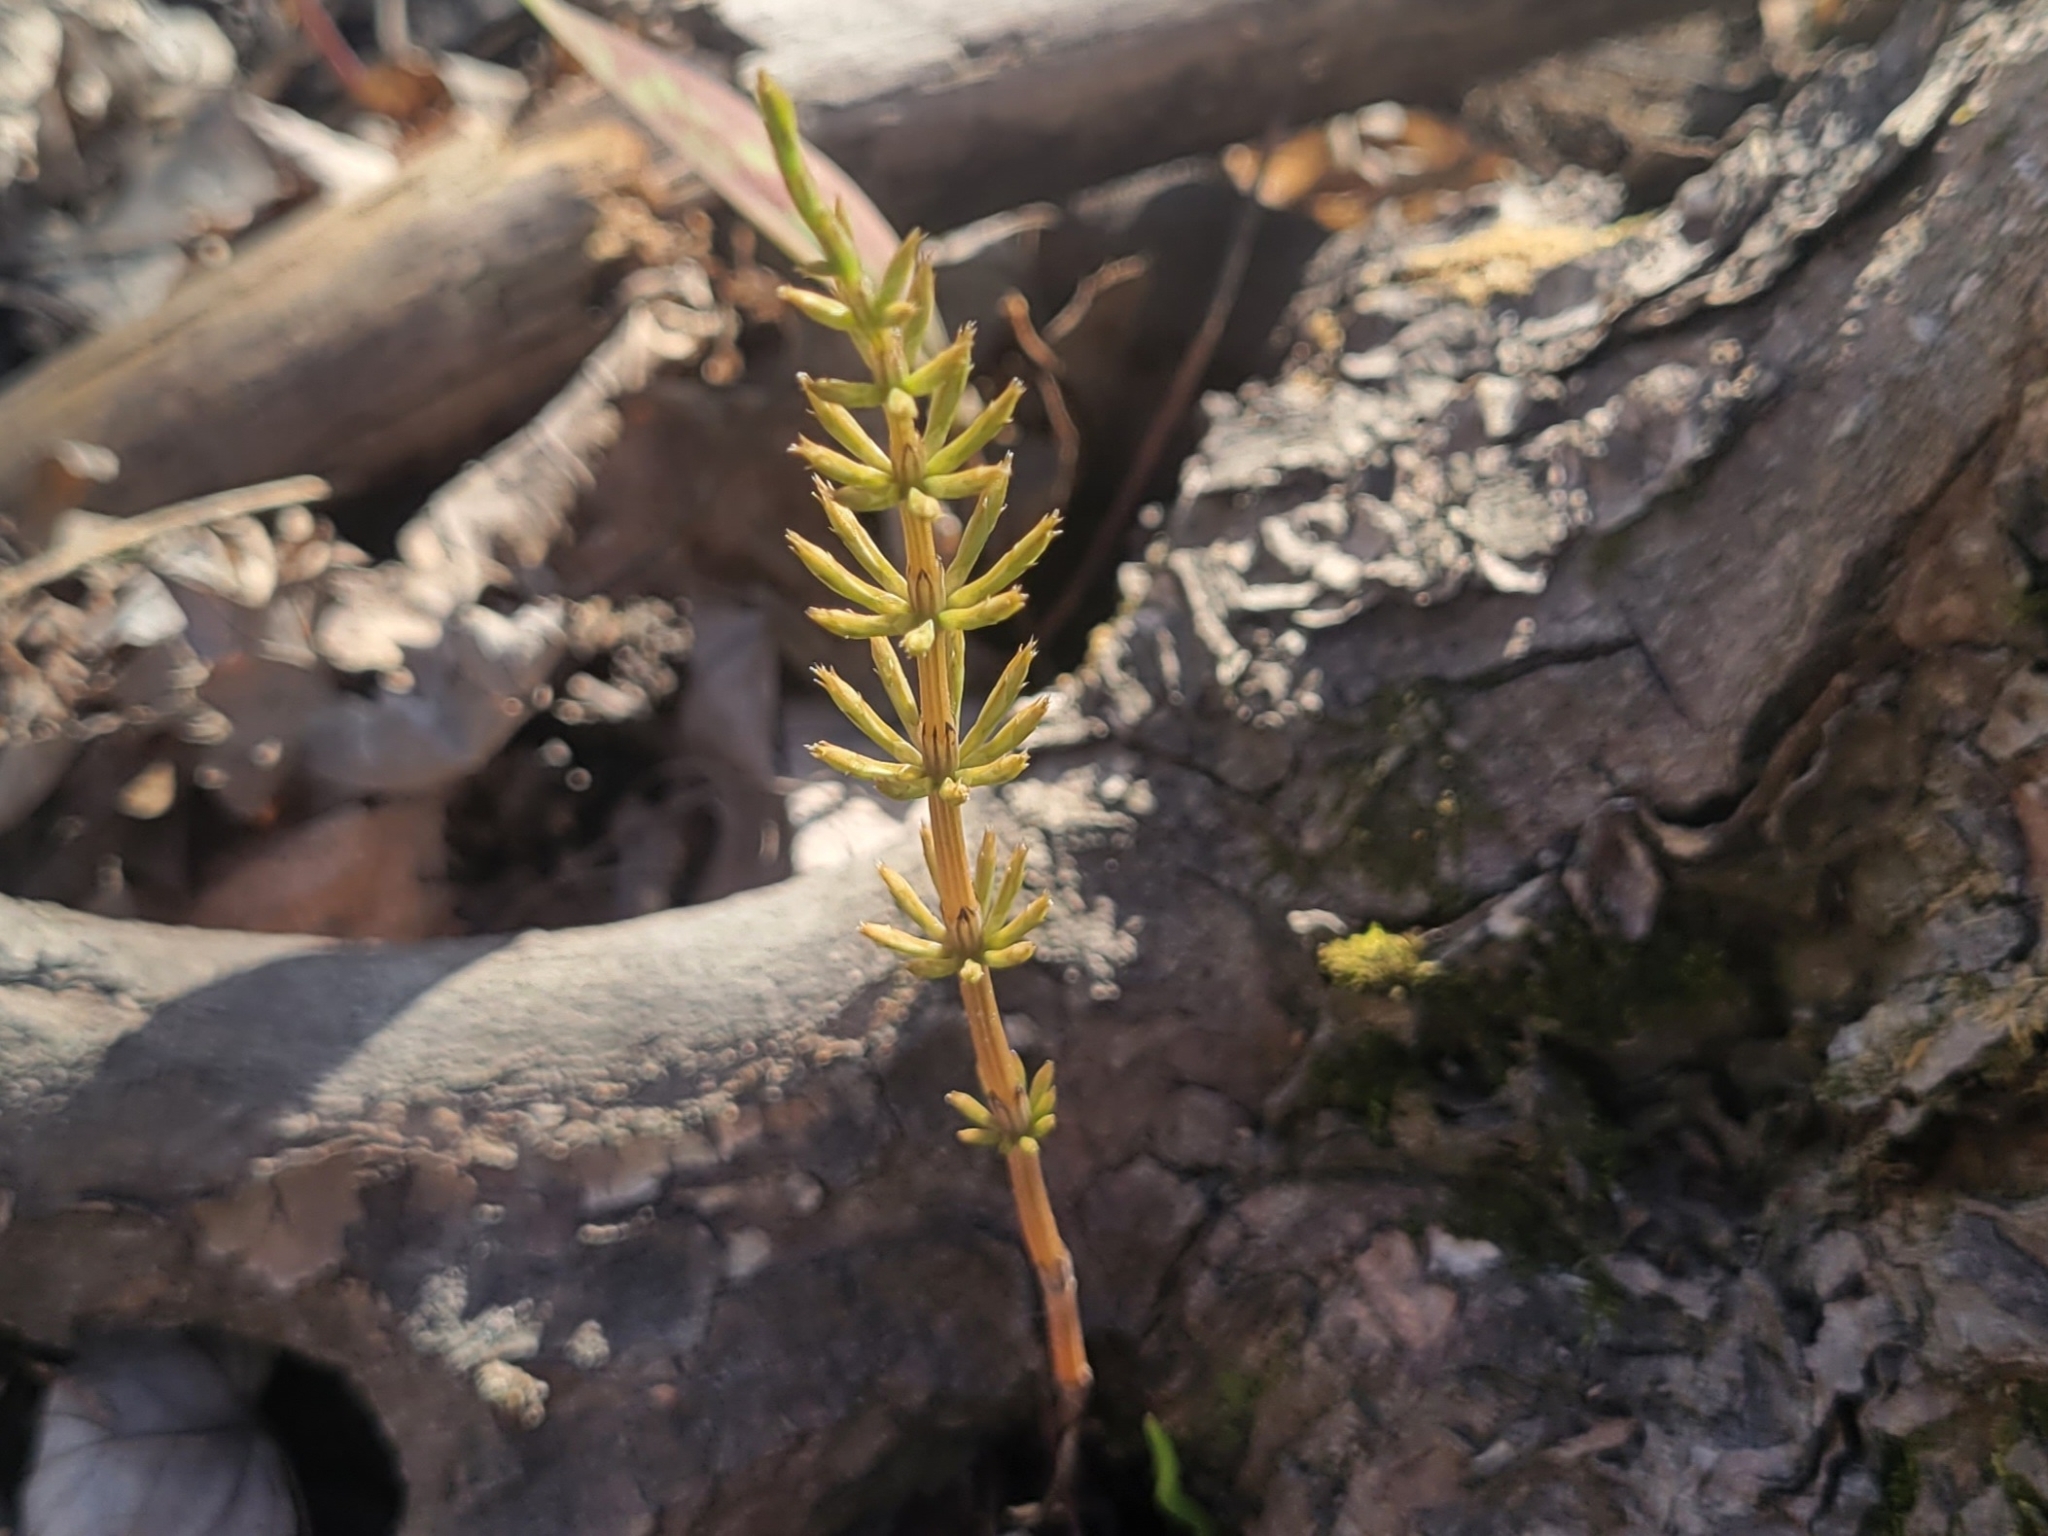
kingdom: Plantae
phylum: Tracheophyta
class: Polypodiopsida
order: Equisetales
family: Equisetaceae
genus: Equisetum
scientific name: Equisetum arvense
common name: Field horsetail
